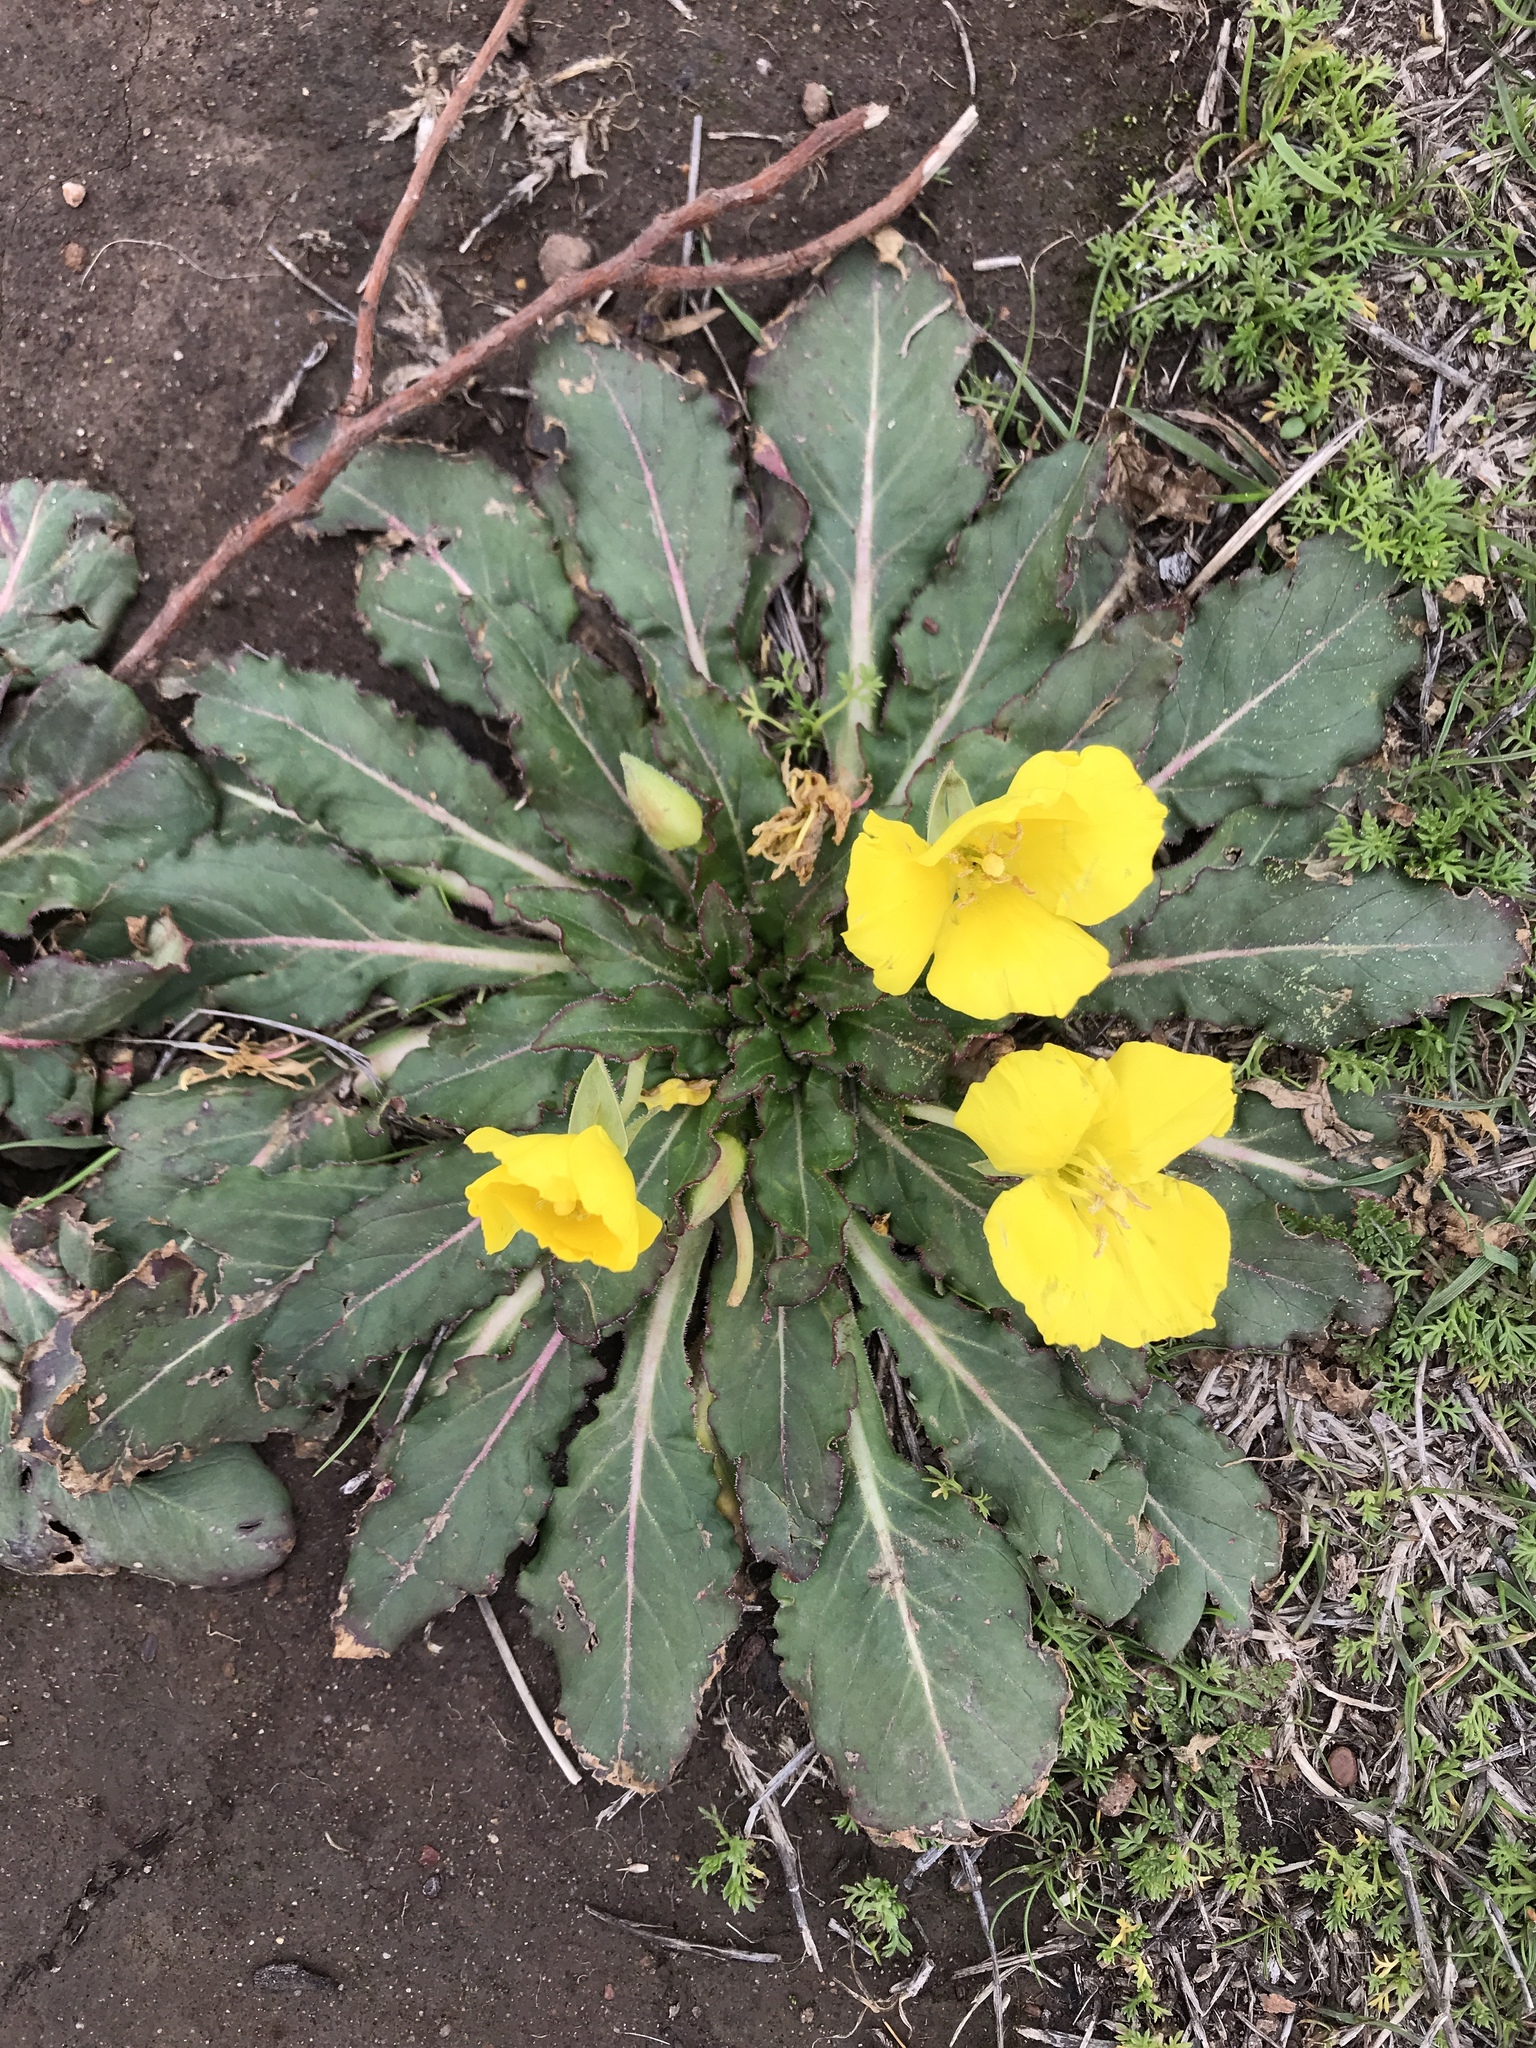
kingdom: Plantae
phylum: Tracheophyta
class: Magnoliopsida
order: Myrtales
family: Onagraceae
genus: Taraxia
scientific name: Taraxia ovata
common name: Goldeneggs
